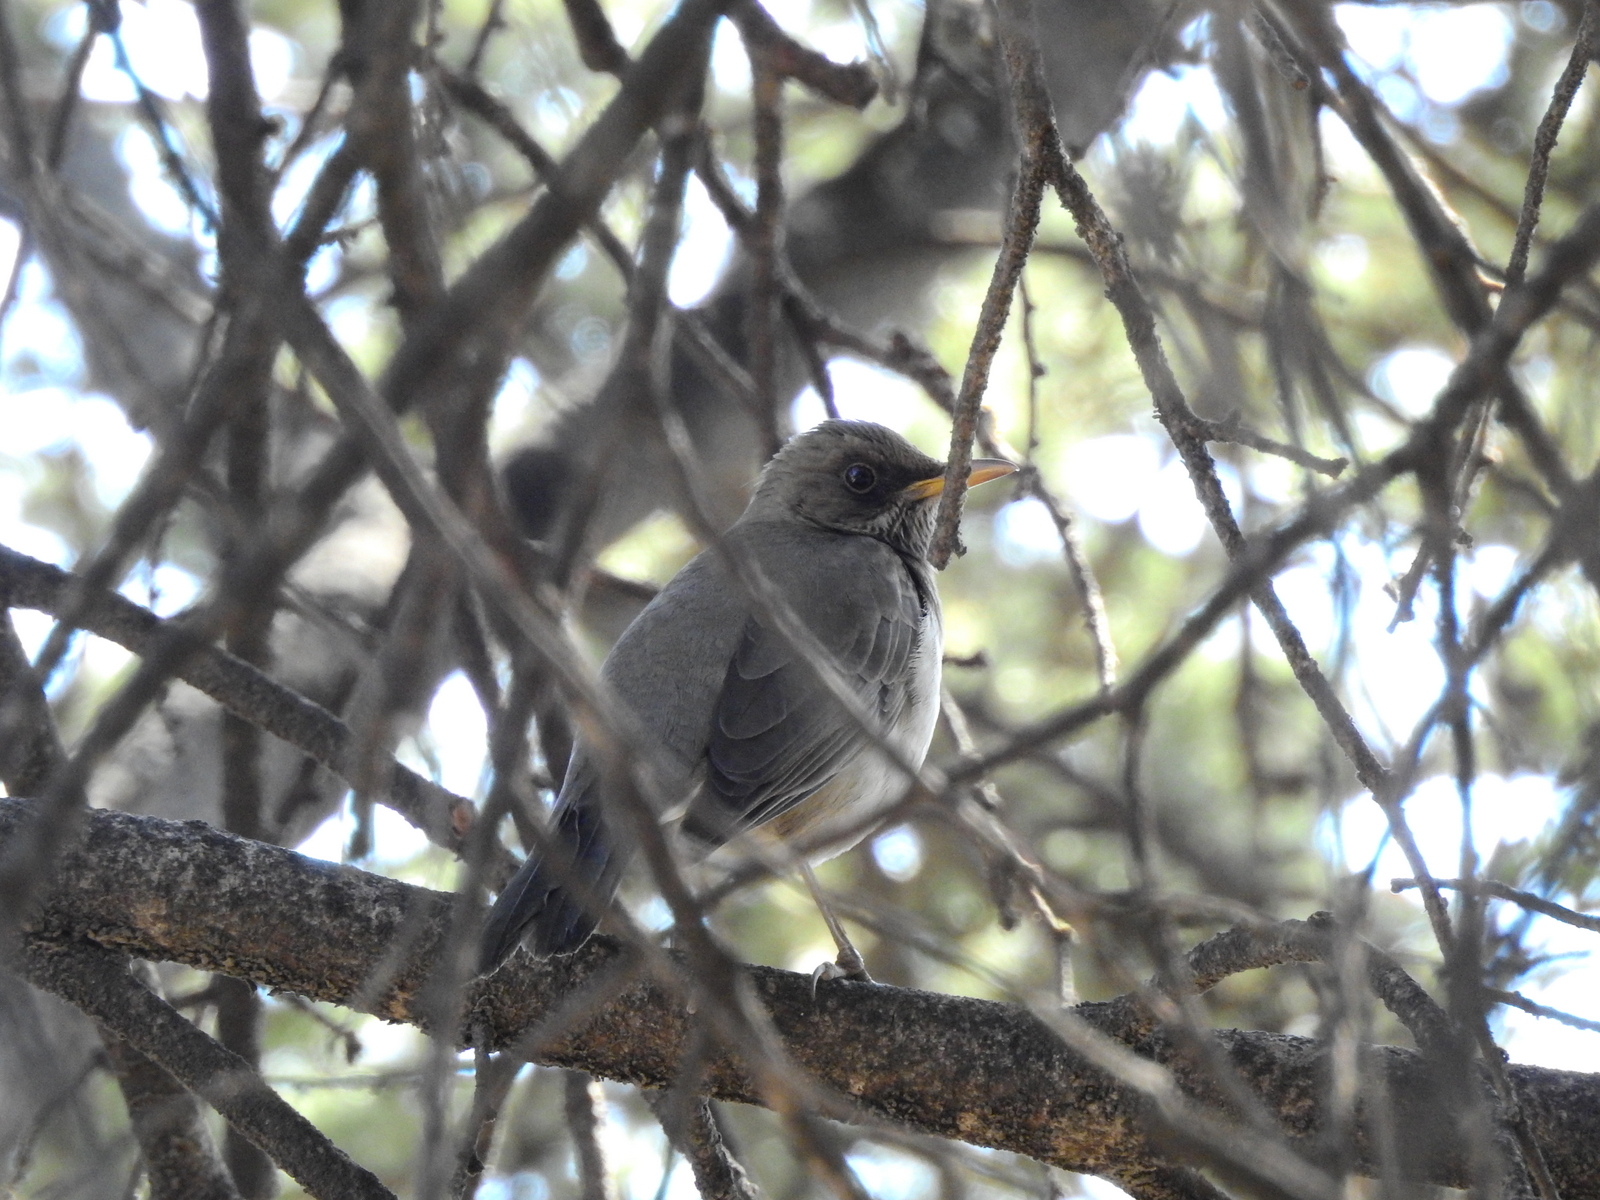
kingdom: Animalia
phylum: Chordata
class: Aves
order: Passeriformes
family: Turdidae
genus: Turdus
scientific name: Turdus amaurochalinus
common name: Creamy-bellied thrush
